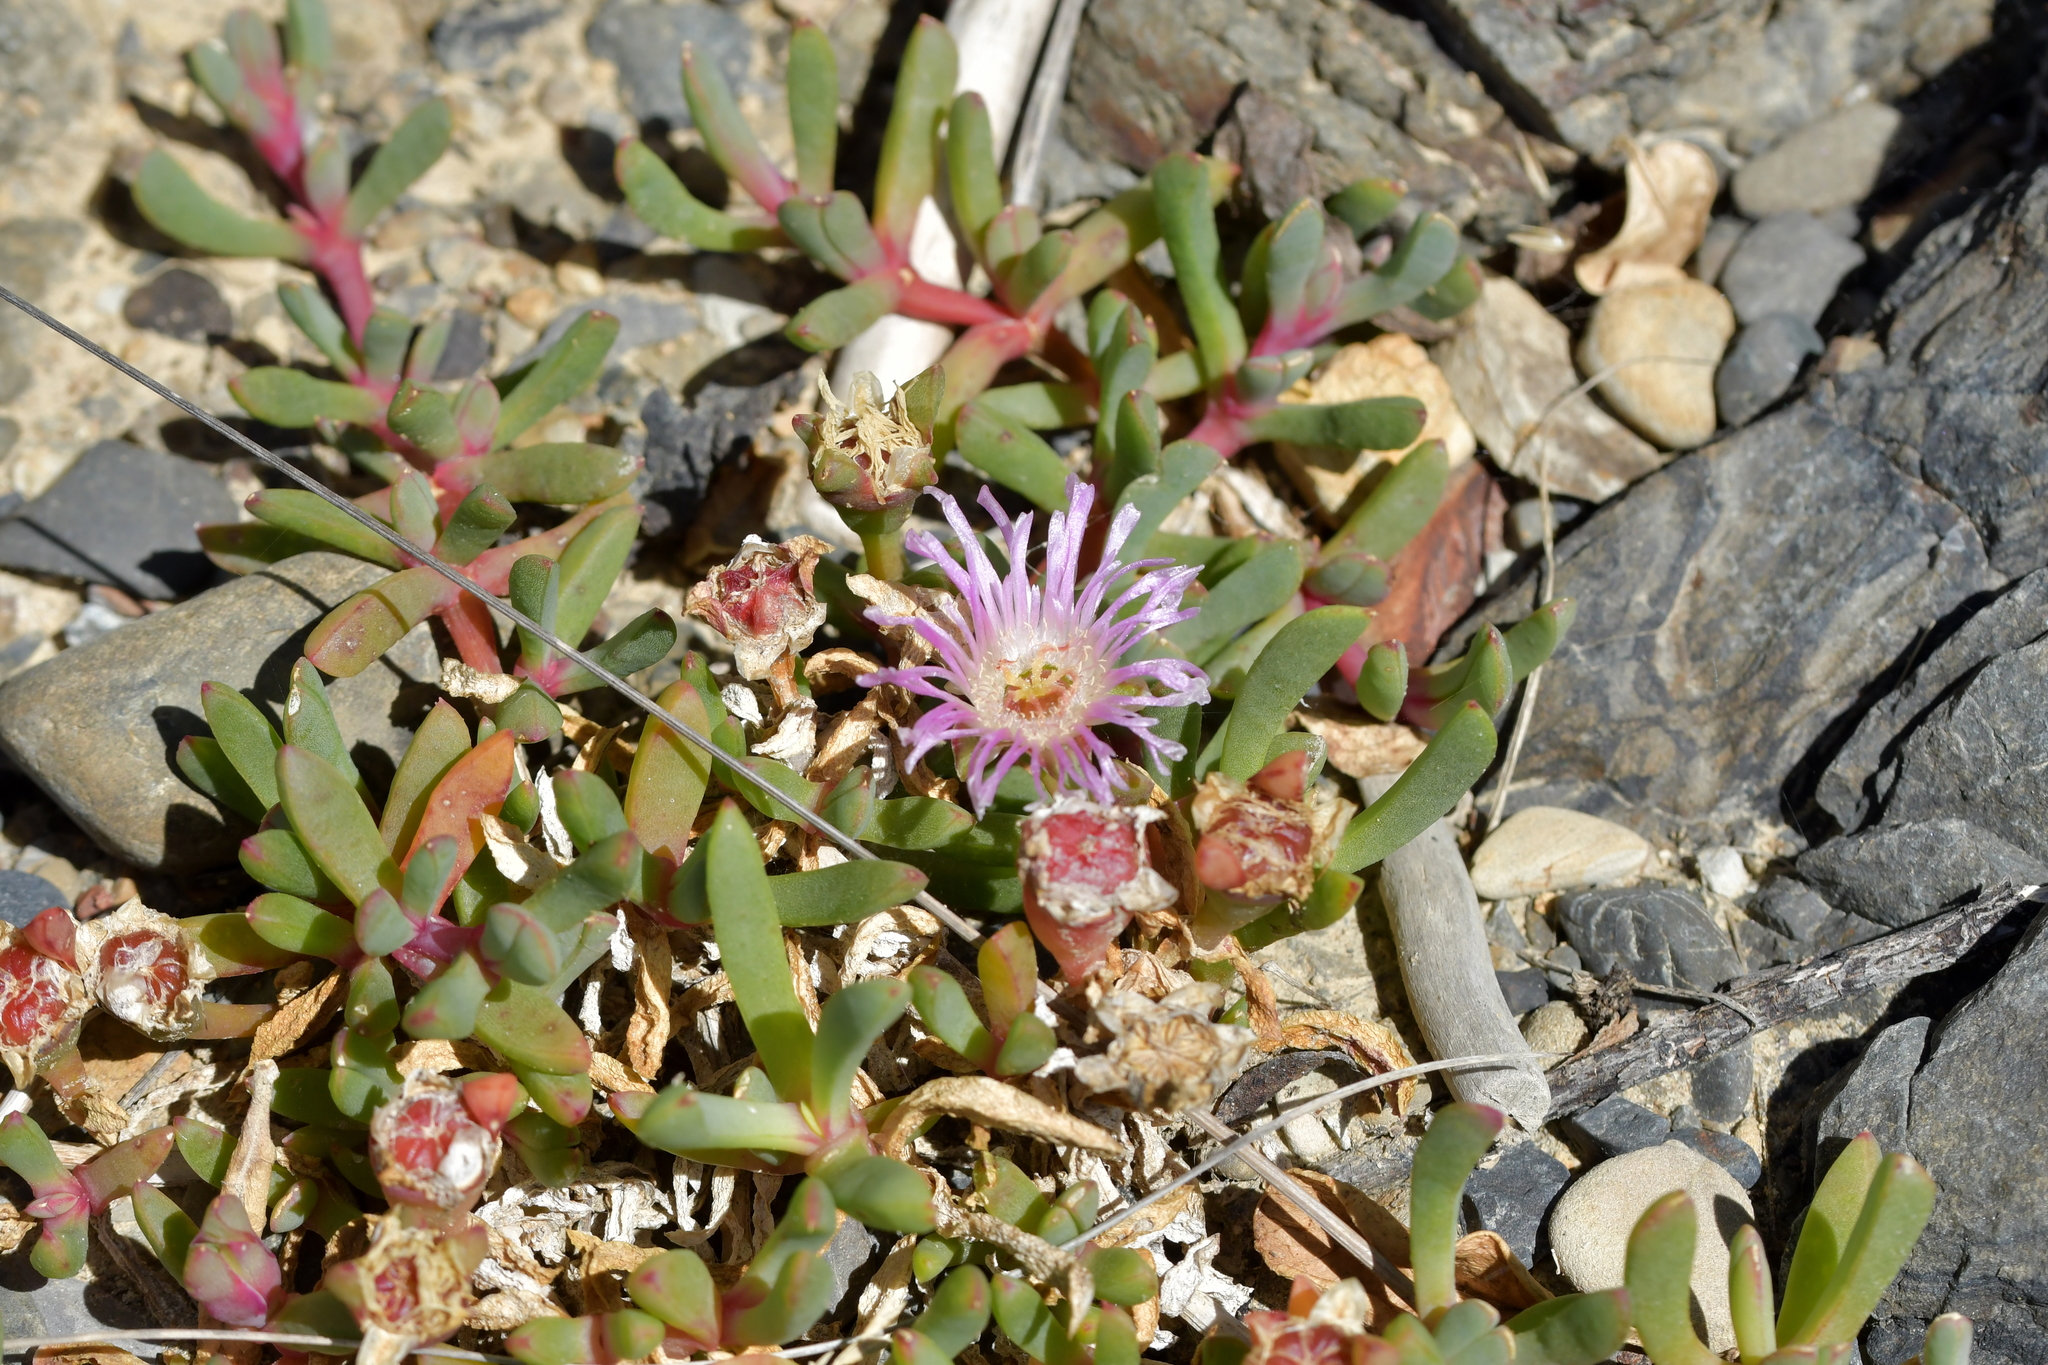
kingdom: Plantae
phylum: Tracheophyta
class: Magnoliopsida
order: Caryophyllales
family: Aizoaceae
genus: Disphyma
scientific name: Disphyma australe
